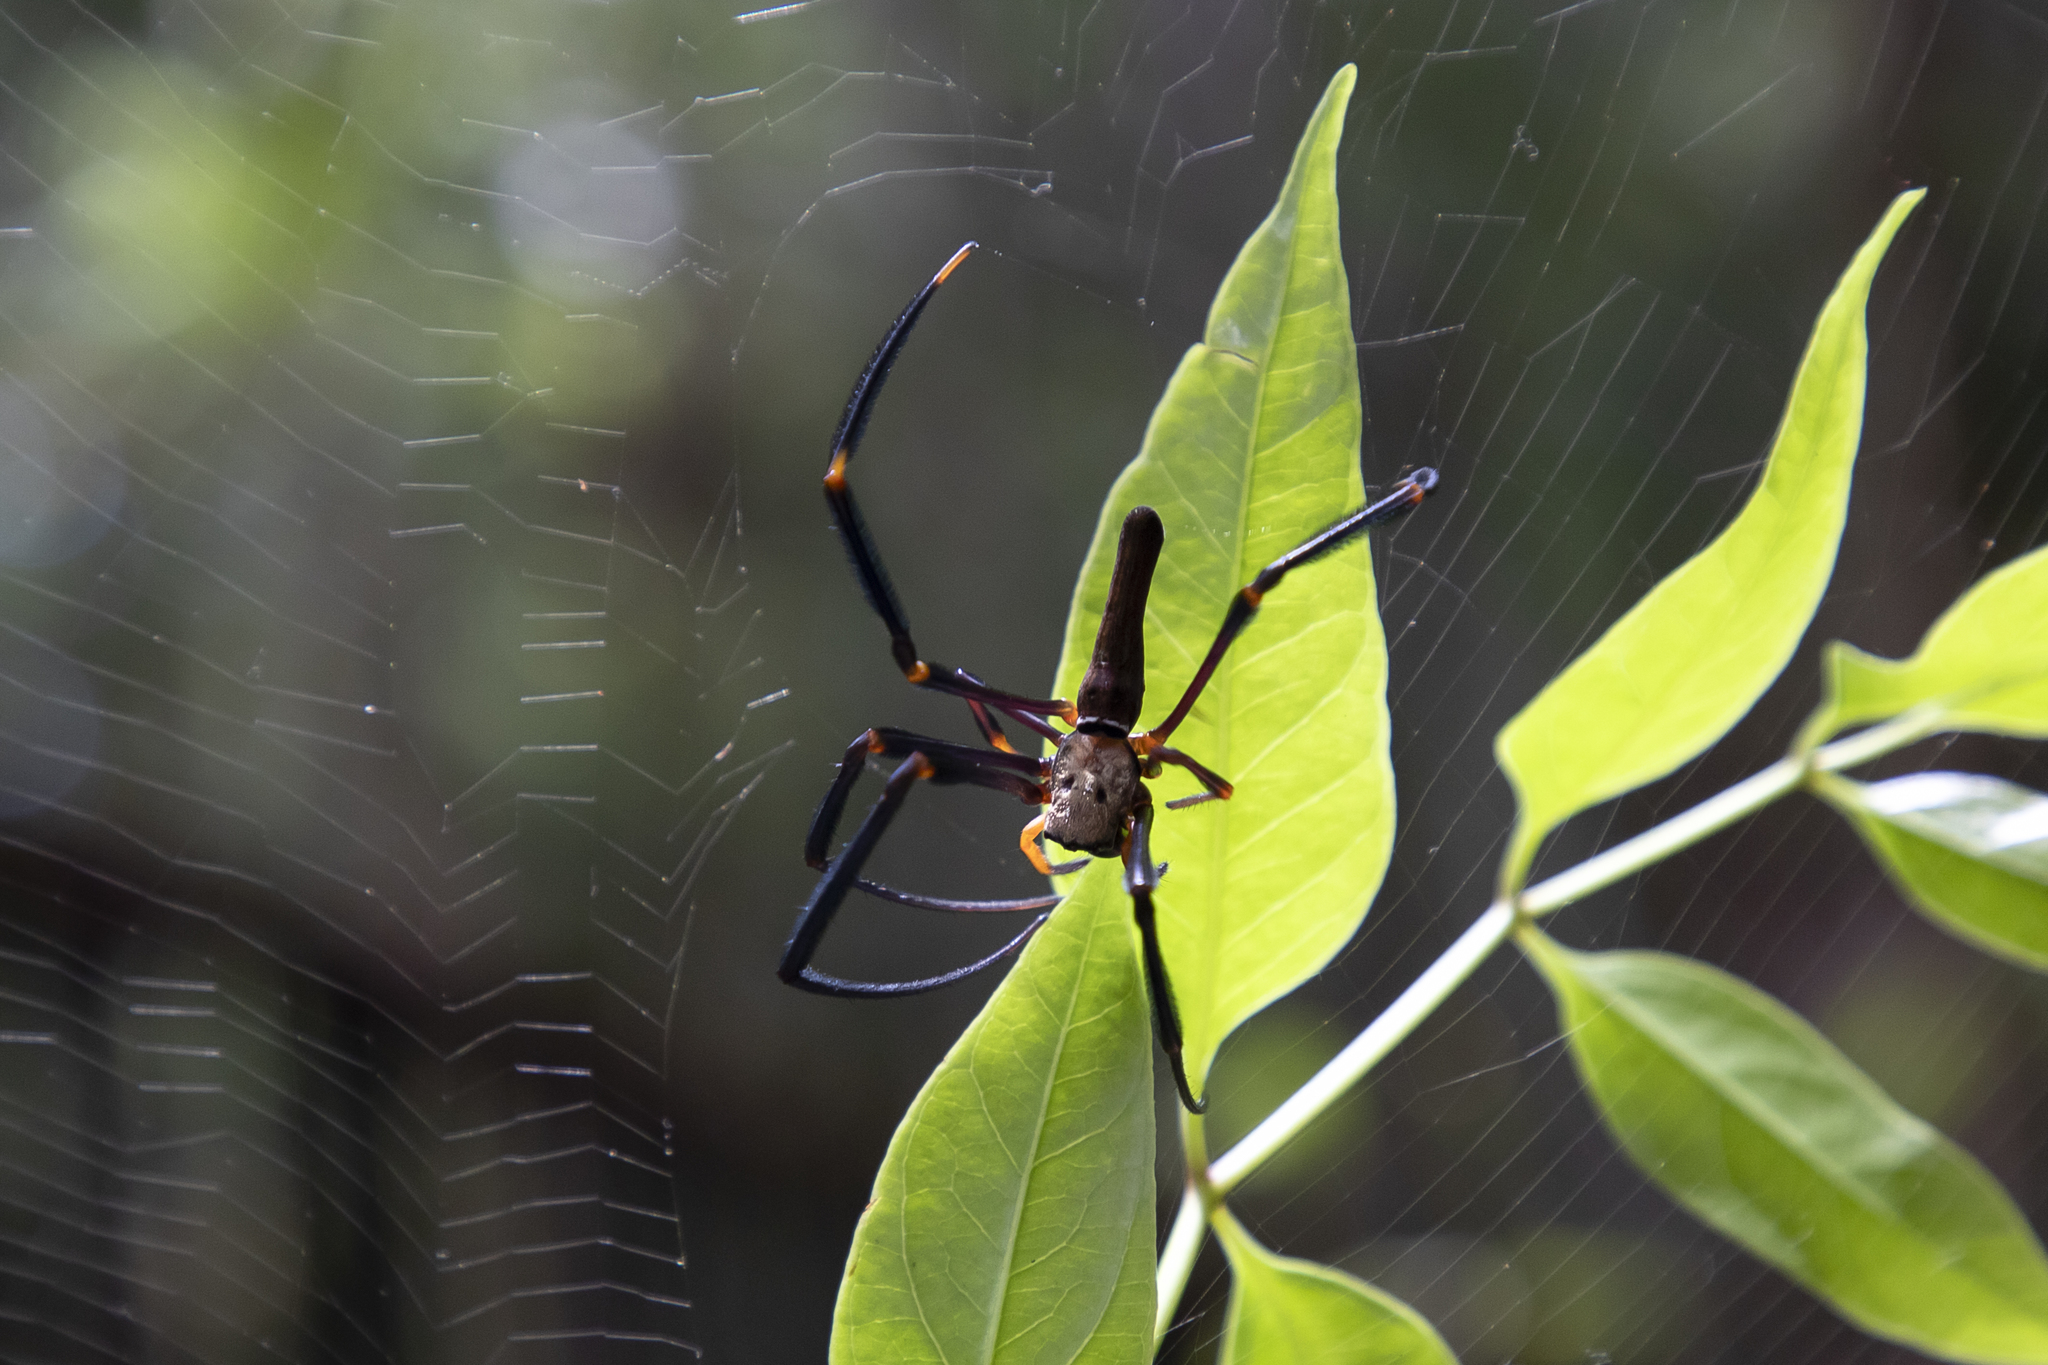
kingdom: Animalia
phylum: Arthropoda
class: Arachnida
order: Araneae
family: Araneidae
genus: Nephila
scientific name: Nephila pilipes
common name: Giant golden orb weaver
